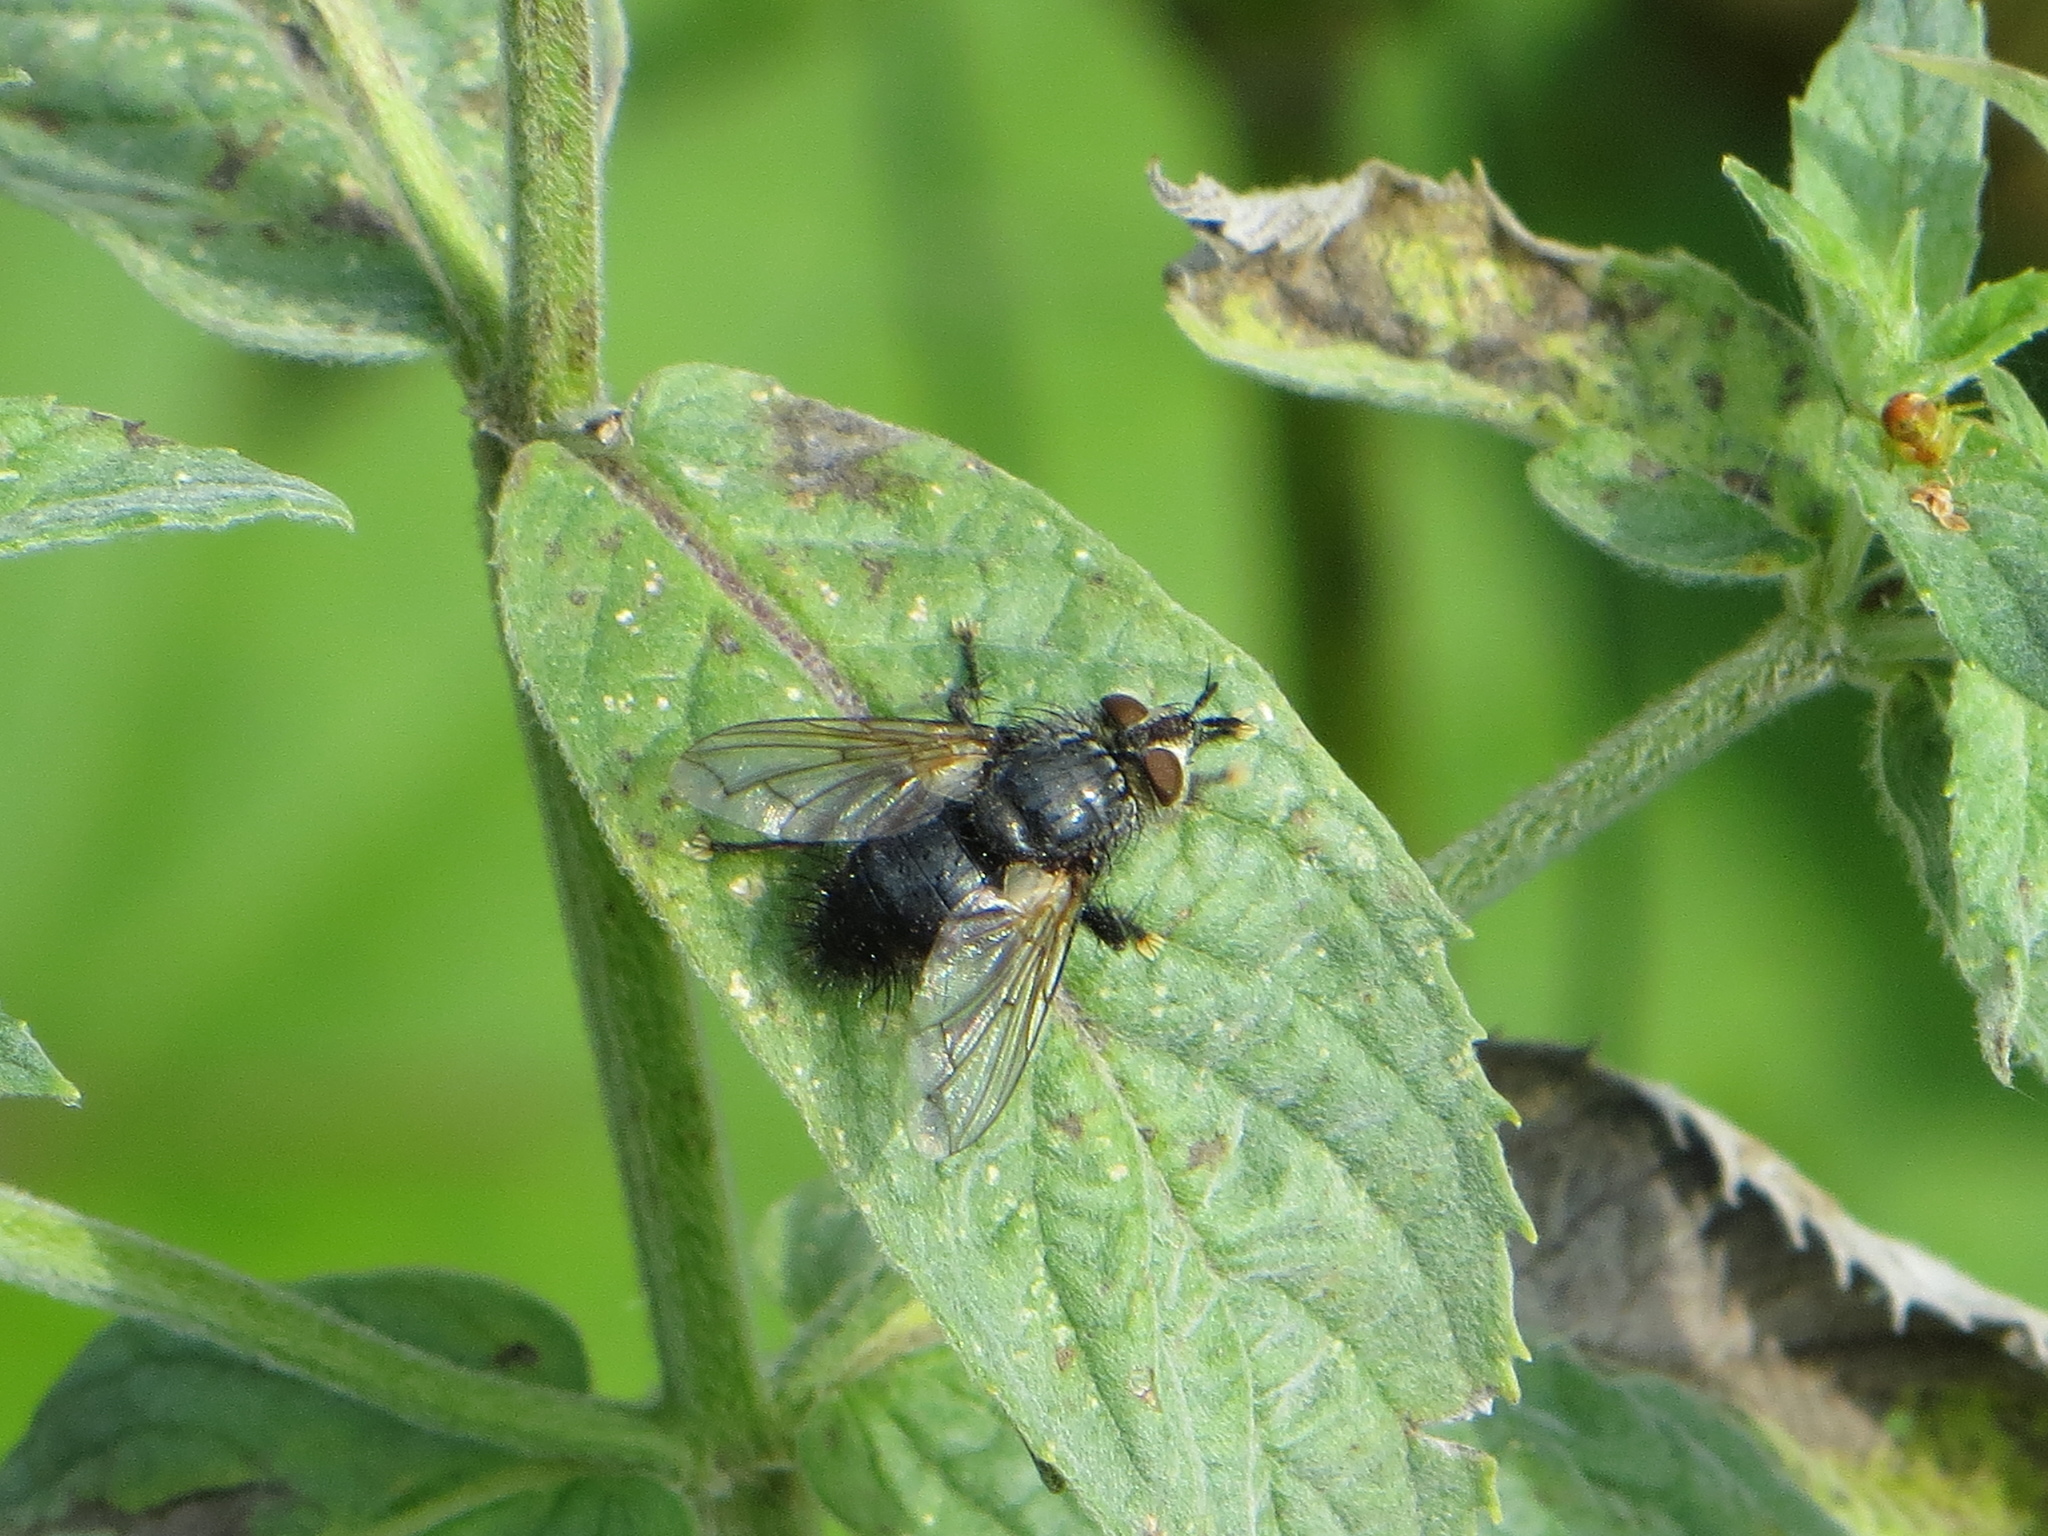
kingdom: Animalia
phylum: Arthropoda
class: Insecta
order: Diptera
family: Tachinidae
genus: Eurithia
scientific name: Eurithia anthophila
